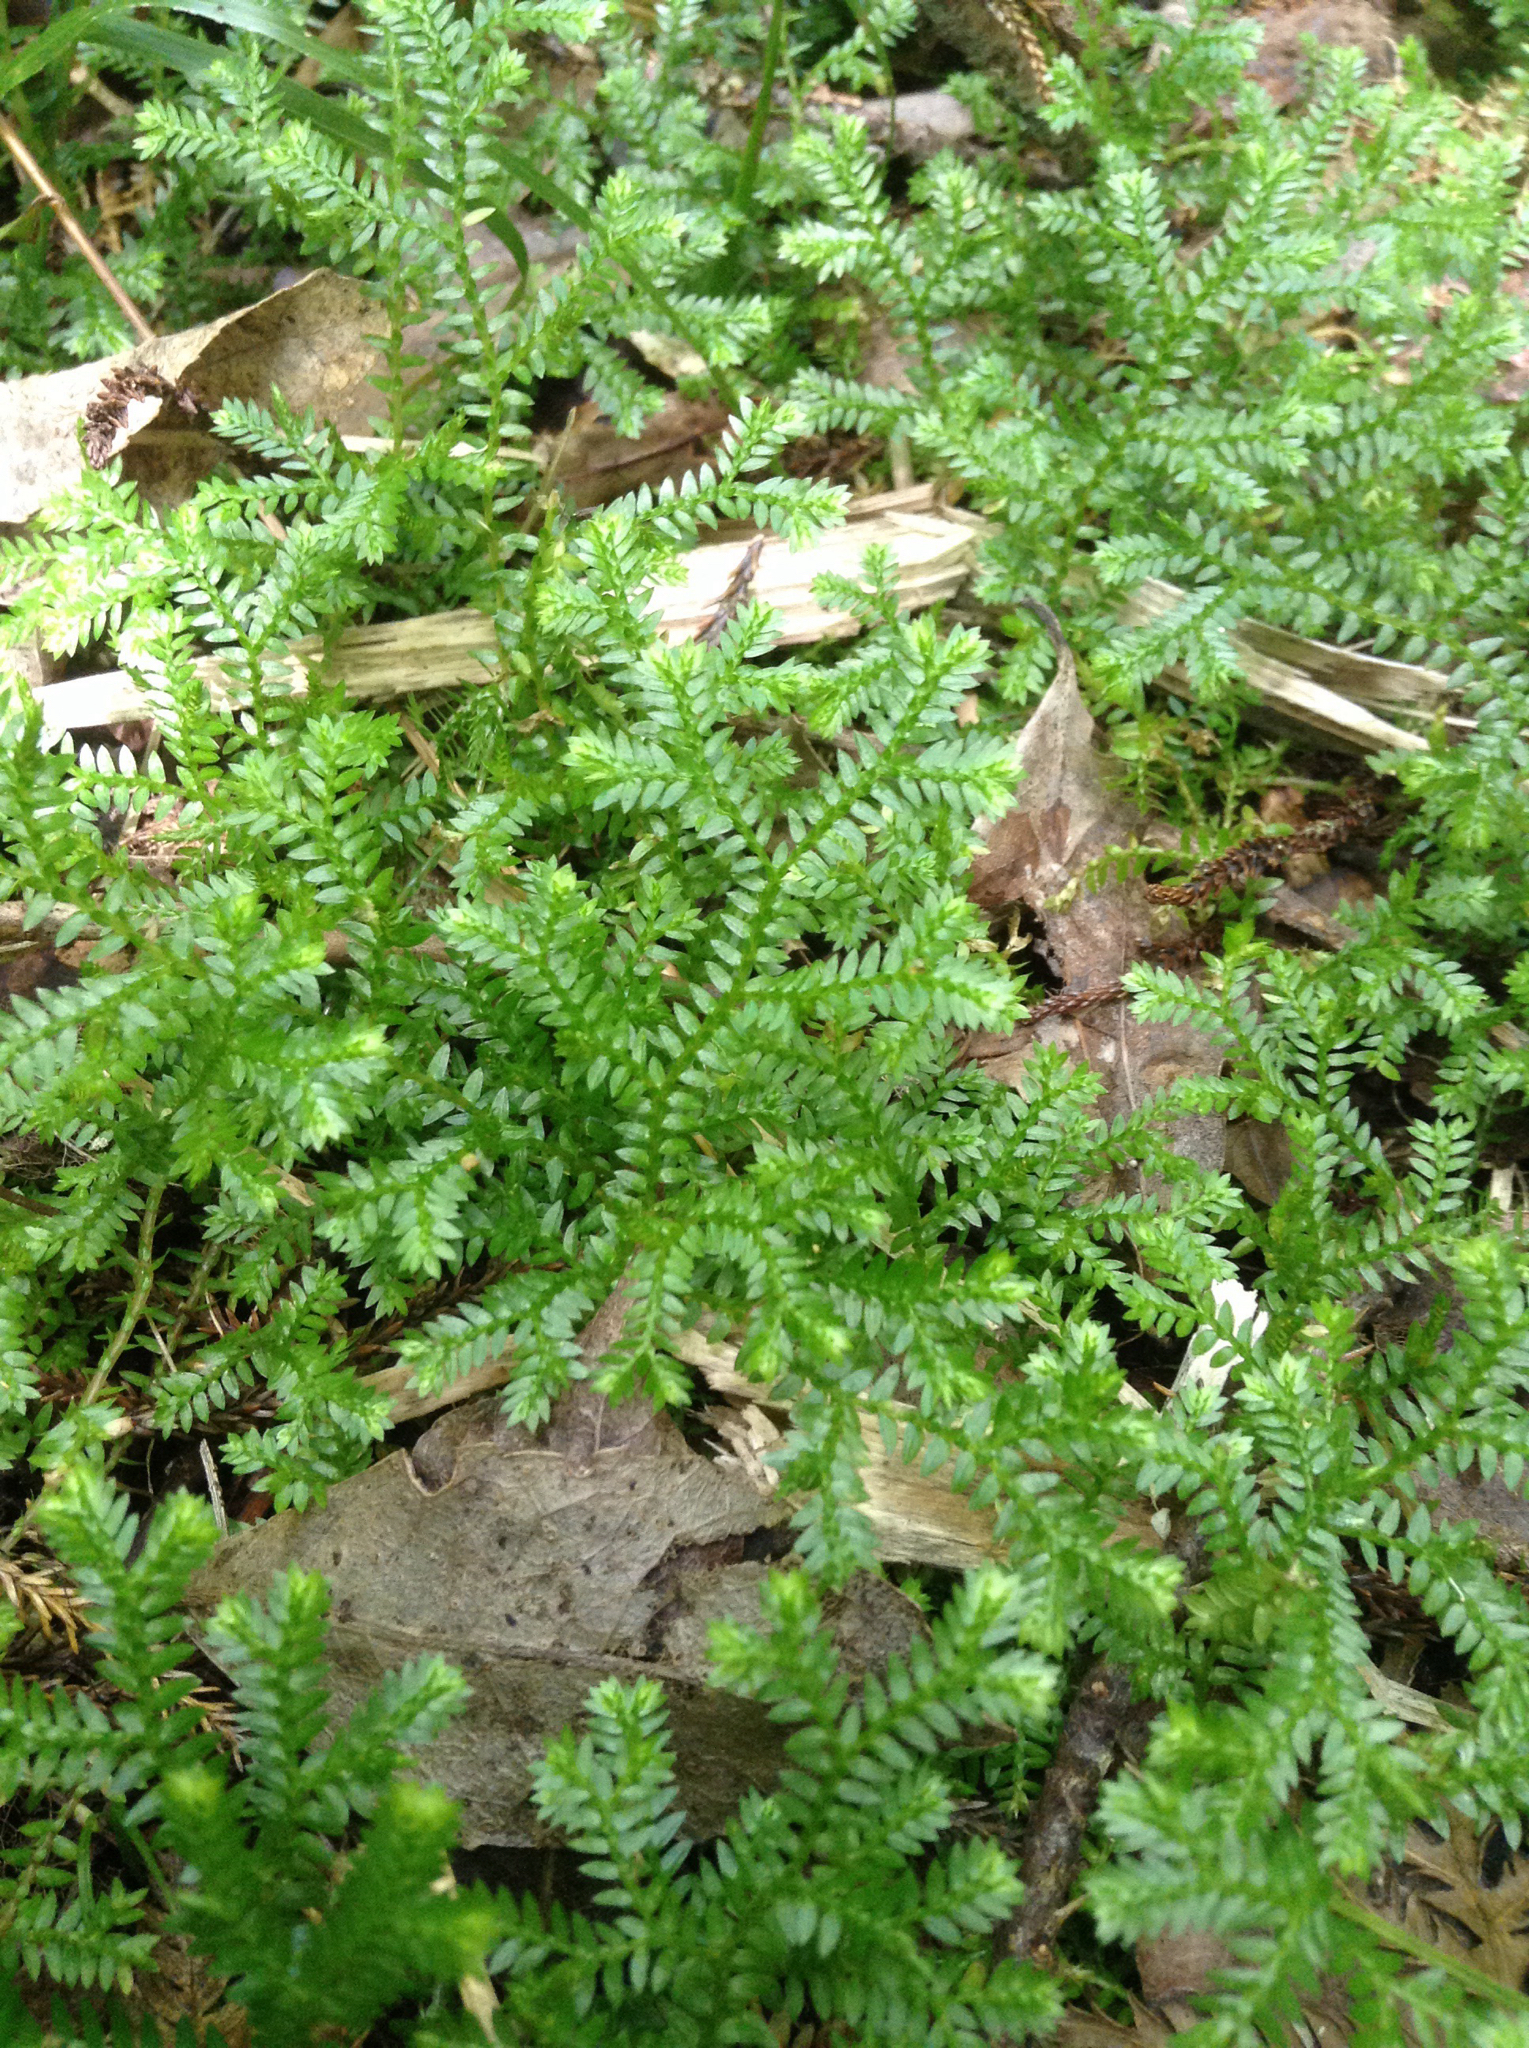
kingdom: Plantae
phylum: Tracheophyta
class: Lycopodiopsida
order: Selaginellales
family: Selaginellaceae
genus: Selaginella
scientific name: Selaginella kraussiana
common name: Krauss' spikemoss
